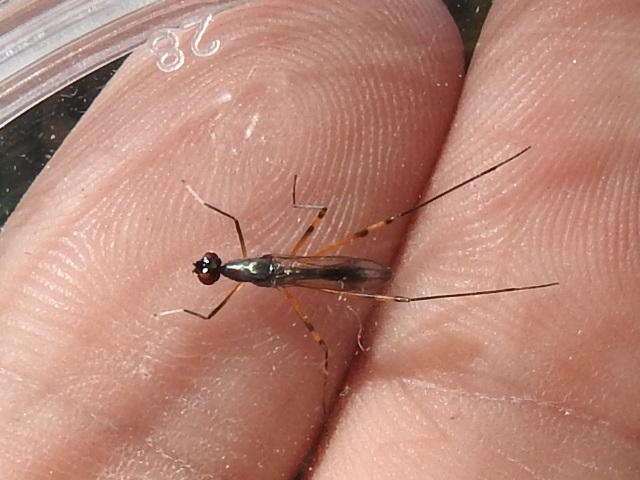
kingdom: Animalia
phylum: Arthropoda
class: Insecta
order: Diptera
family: Micropezidae
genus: Rainieria
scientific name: Rainieria antennaepes
